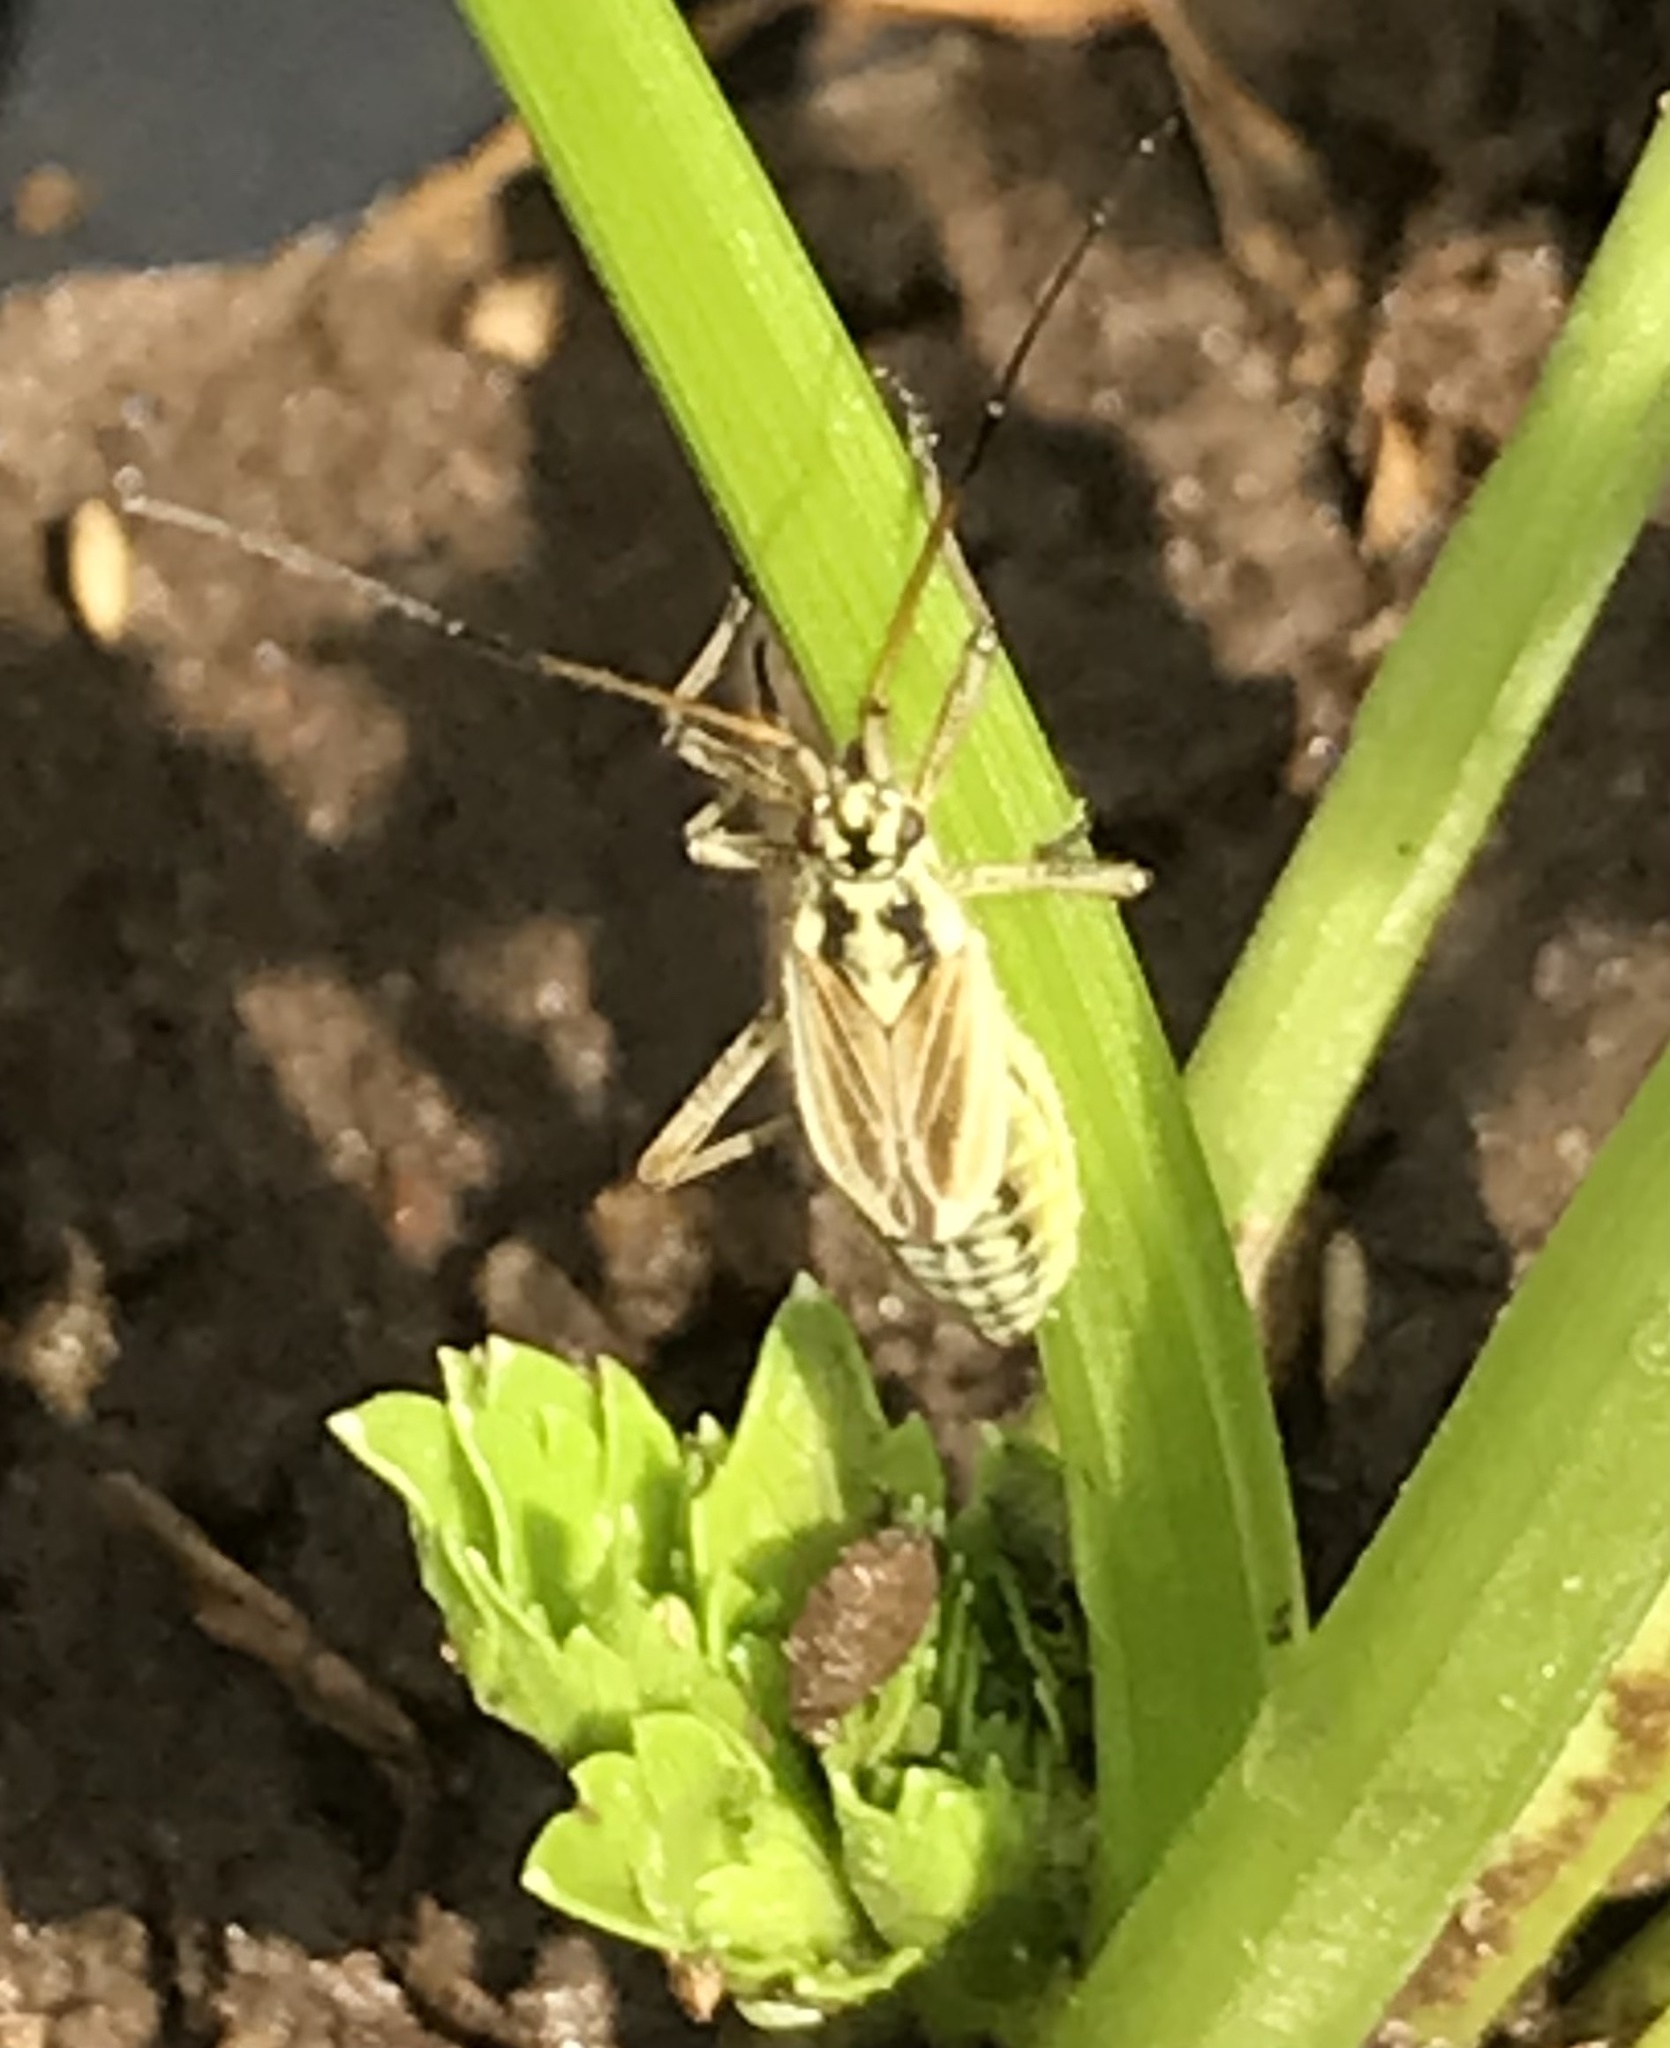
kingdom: Animalia
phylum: Arthropoda
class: Insecta
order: Hemiptera
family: Miridae
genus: Leptopterna
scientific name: Leptopterna dolabrata
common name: Meadow plant bug
